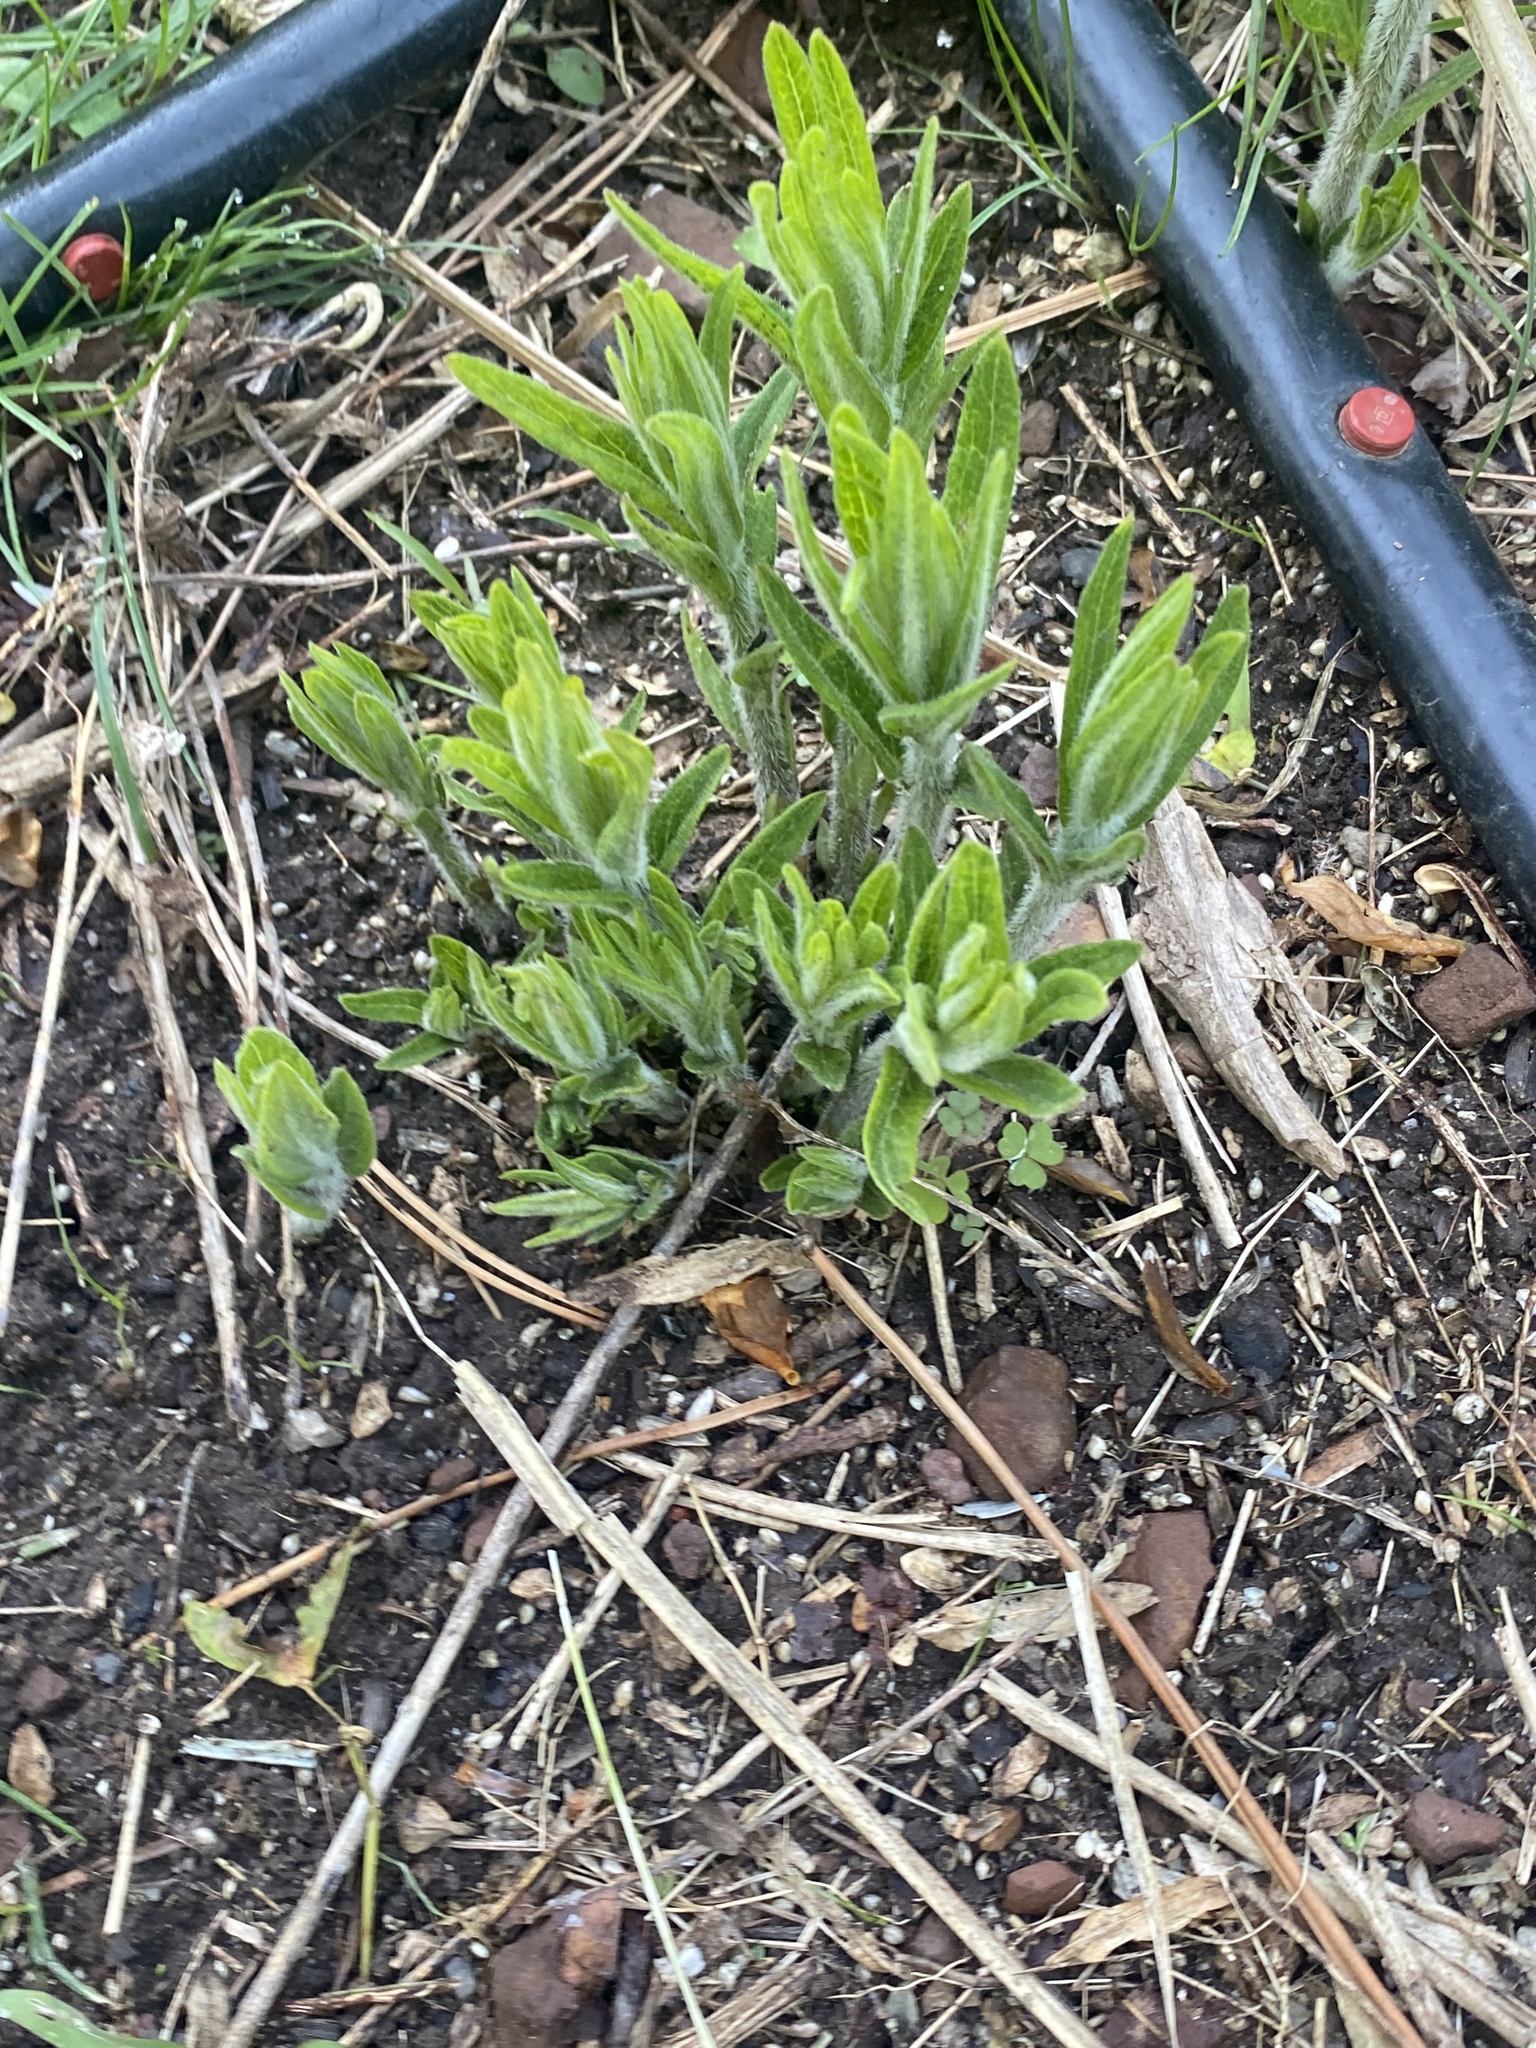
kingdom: Plantae
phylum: Tracheophyta
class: Magnoliopsida
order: Gentianales
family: Apocynaceae
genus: Asclepias
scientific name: Asclepias tuberosa
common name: Butterfly milkweed
